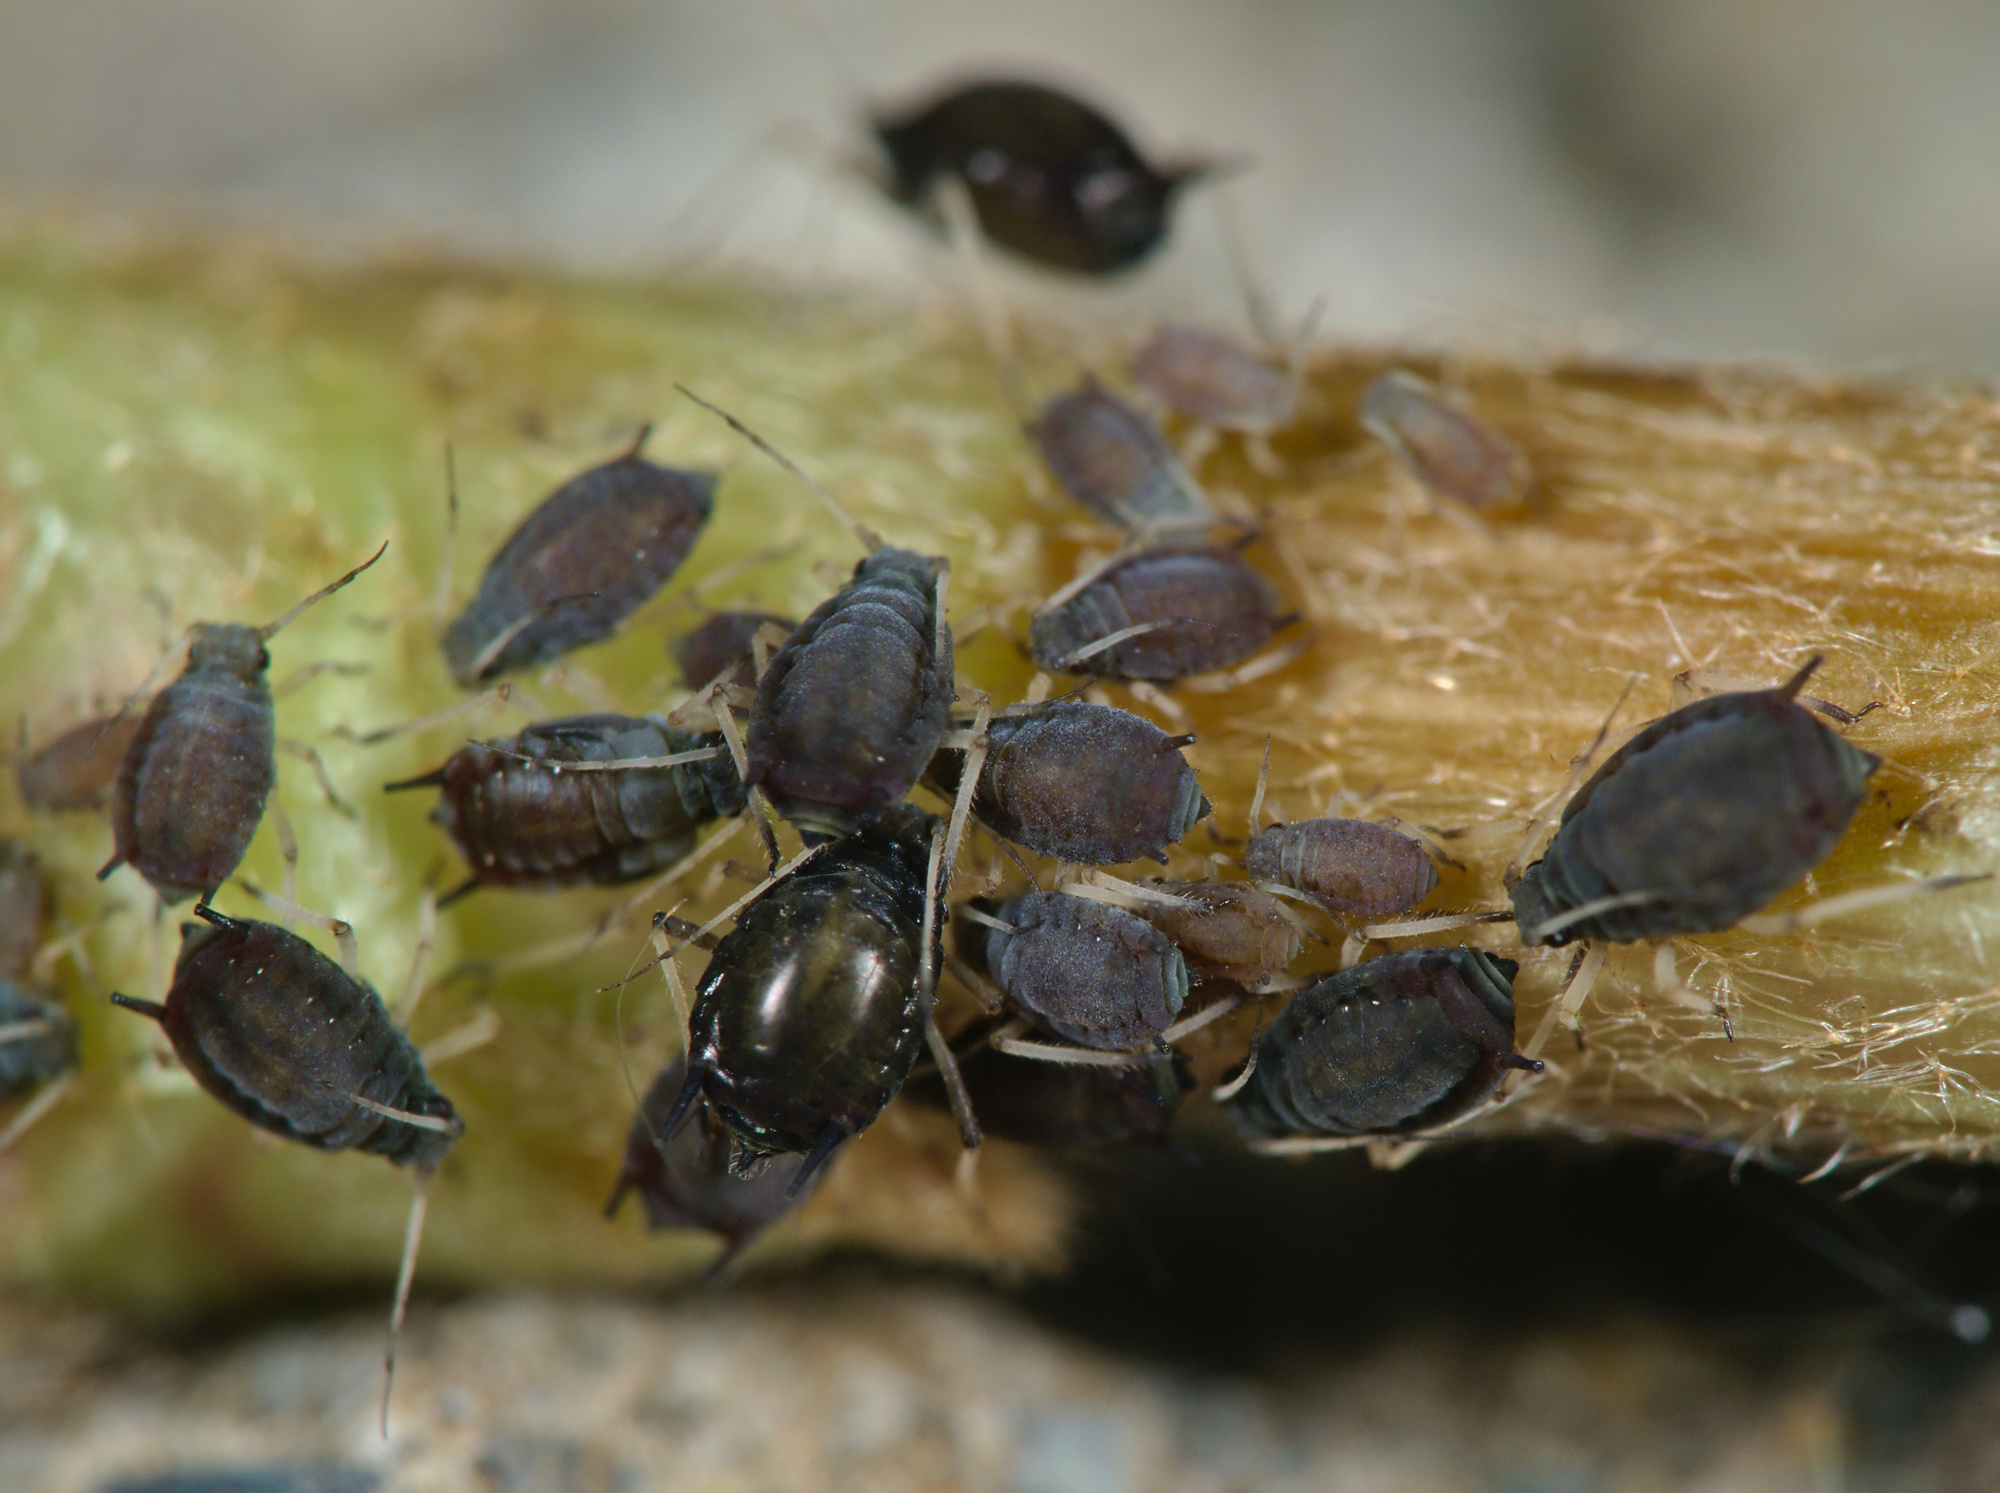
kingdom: Animalia
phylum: Arthropoda
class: Insecta
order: Hemiptera
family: Aphididae
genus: Aphis
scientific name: Aphis hederae
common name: Ivy aphid
